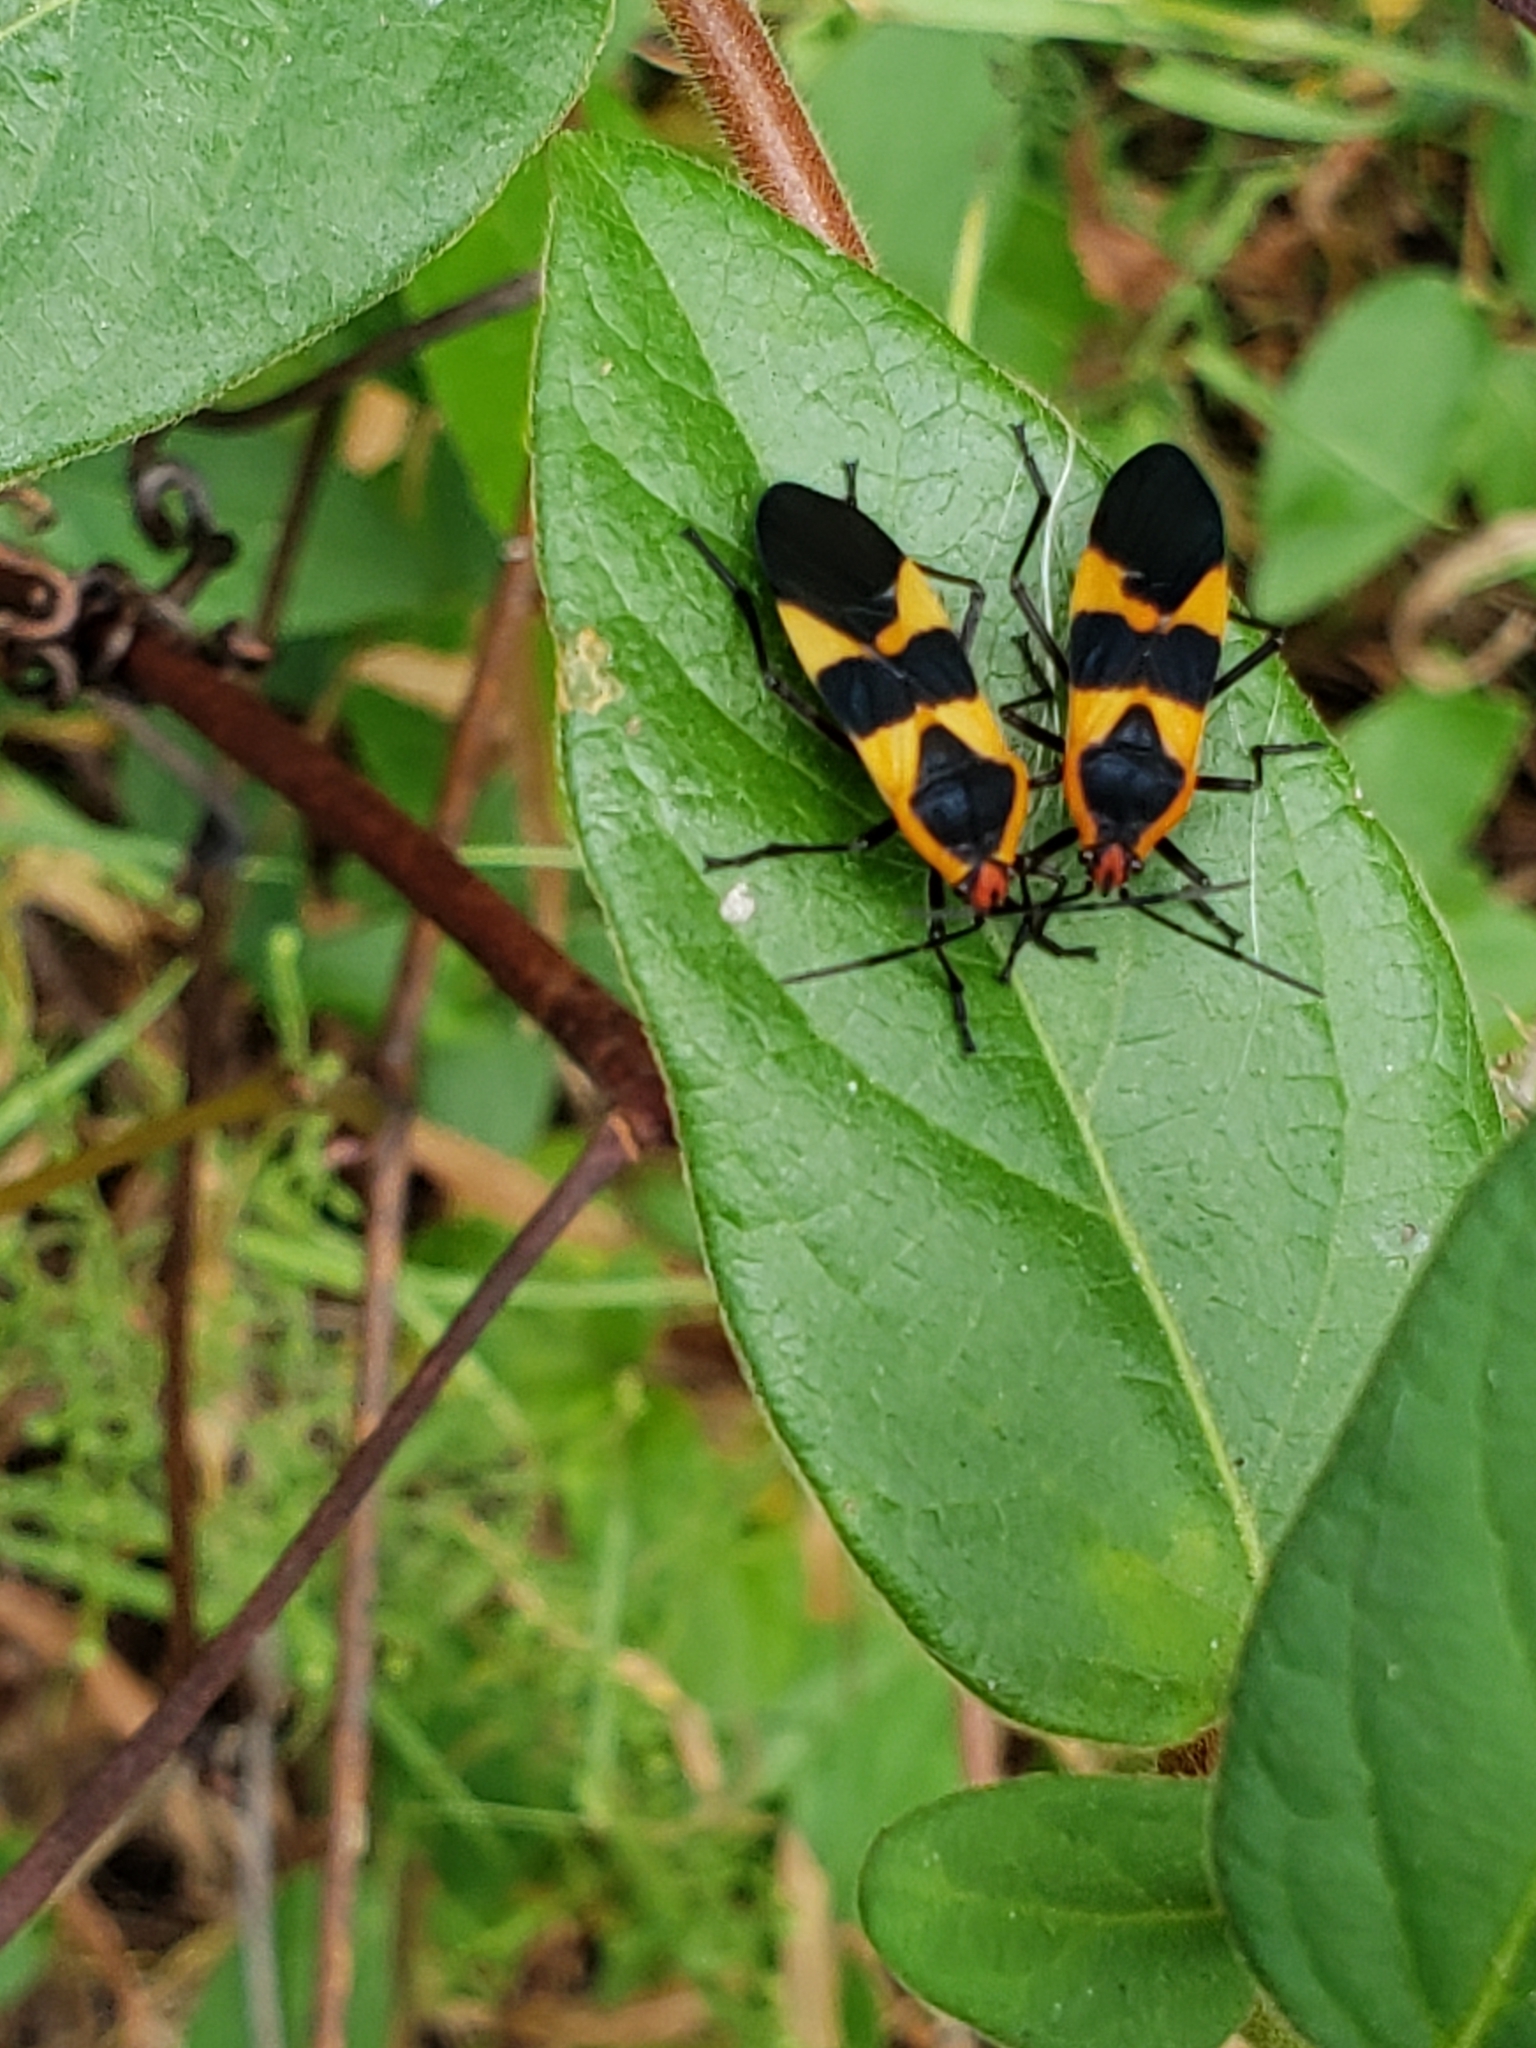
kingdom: Animalia
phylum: Arthropoda
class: Insecta
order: Hemiptera
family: Lygaeidae
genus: Oncopeltus
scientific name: Oncopeltus fasciatus
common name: Large milkweed bug
